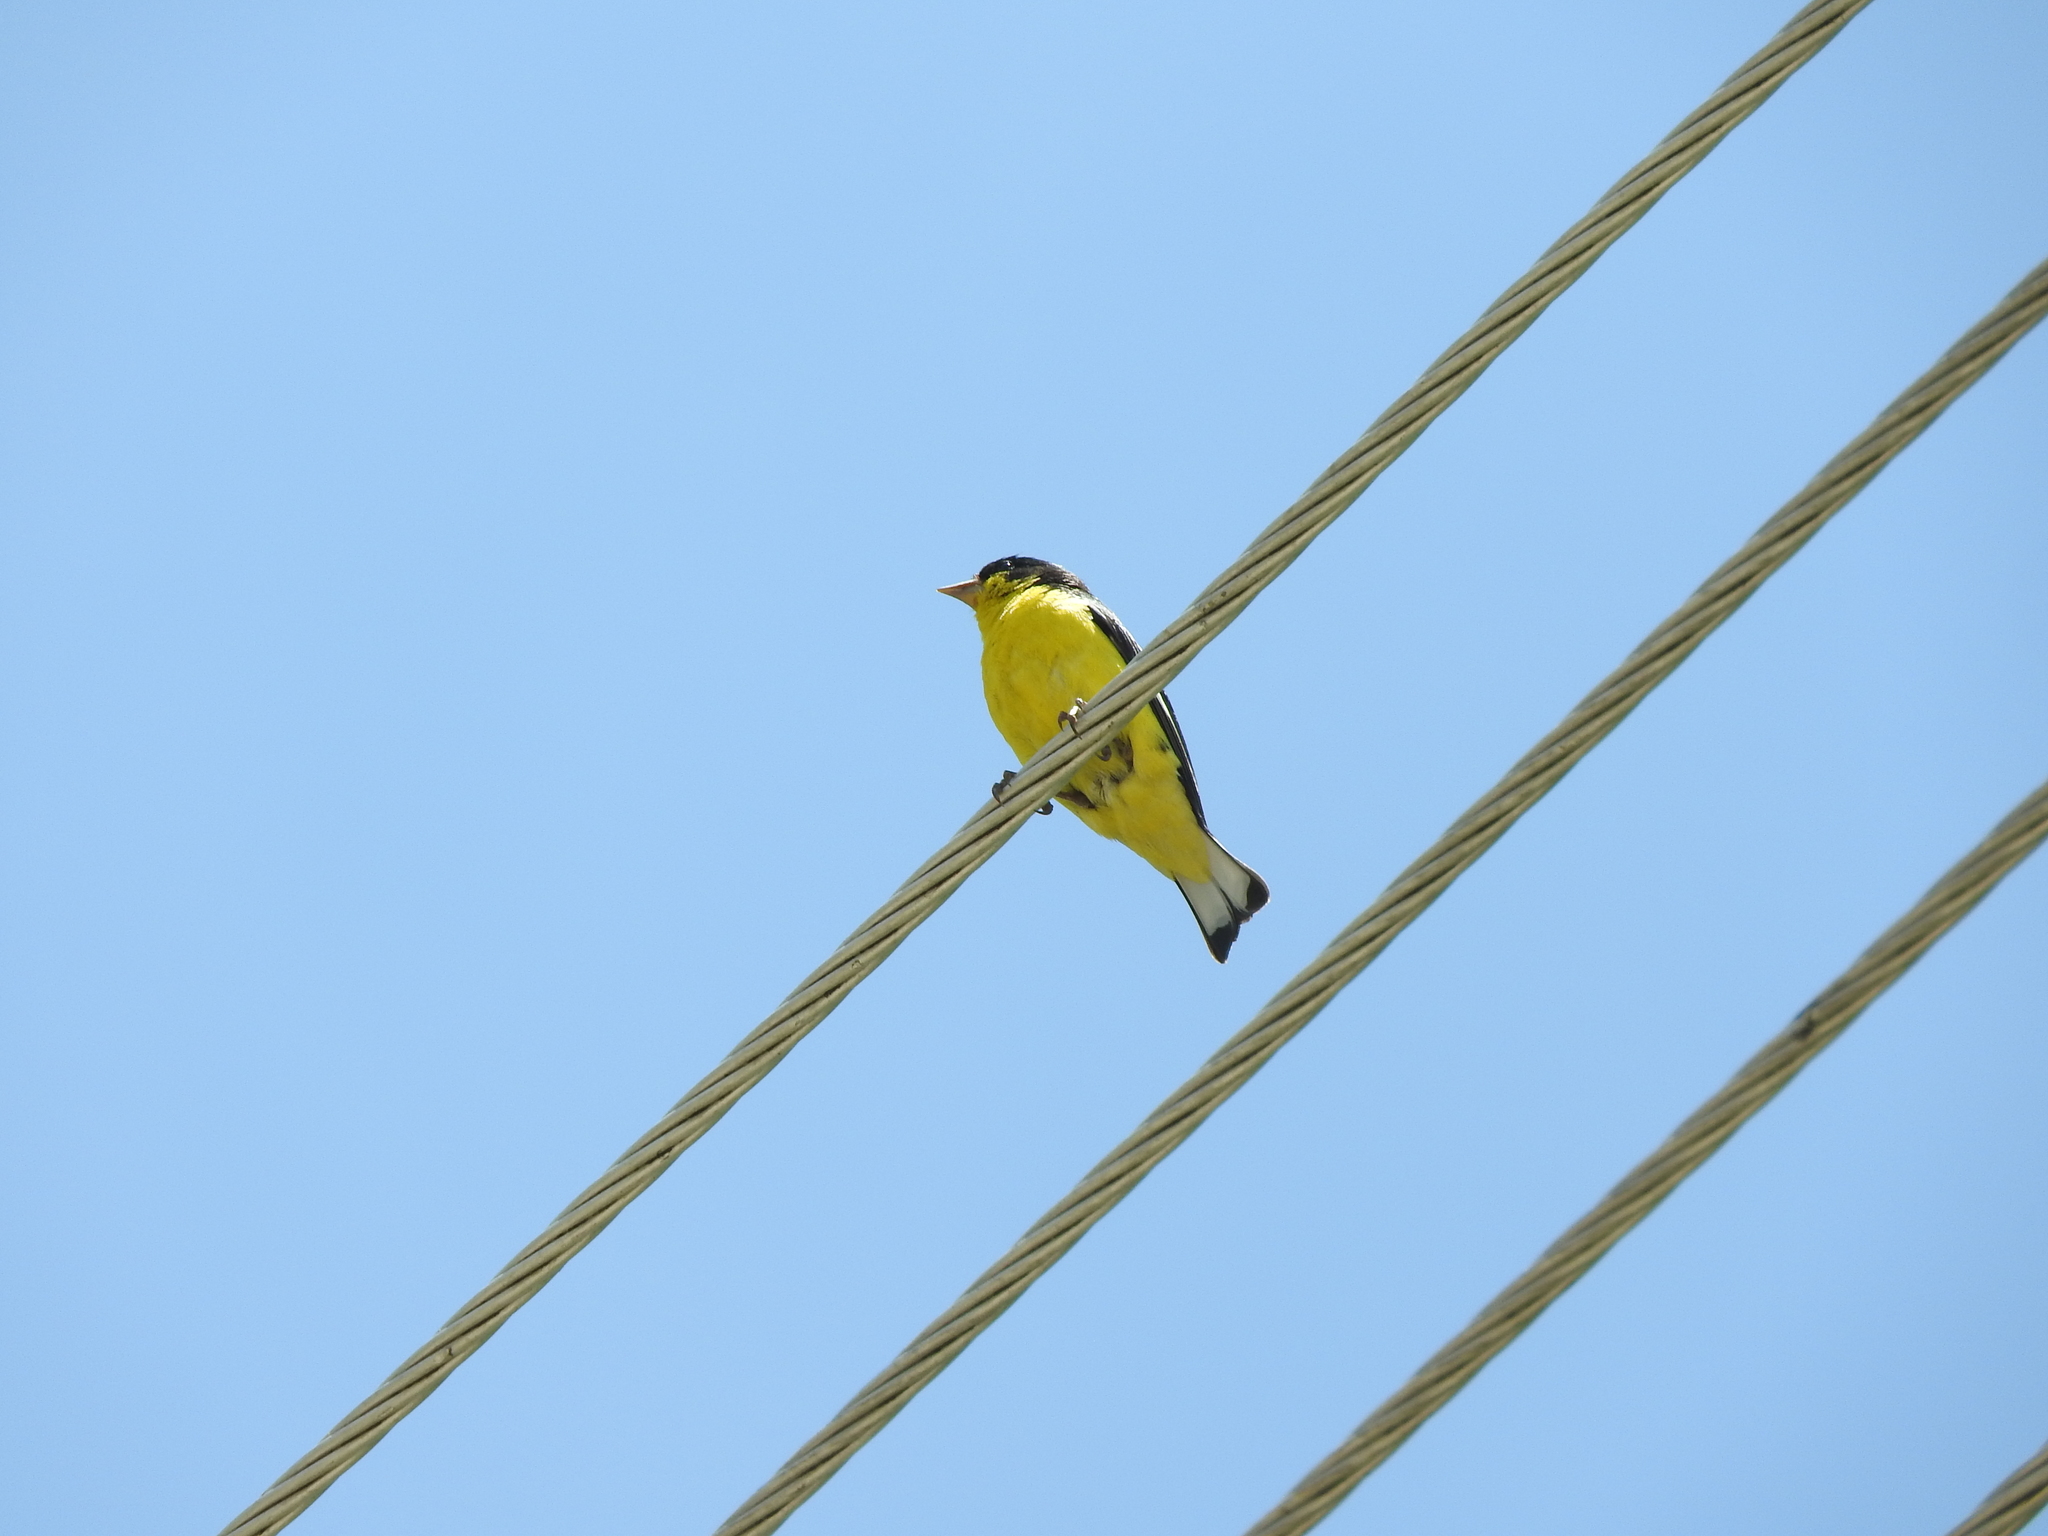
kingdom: Animalia
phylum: Chordata
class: Aves
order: Passeriformes
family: Fringillidae
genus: Spinus
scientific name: Spinus psaltria
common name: Lesser goldfinch
